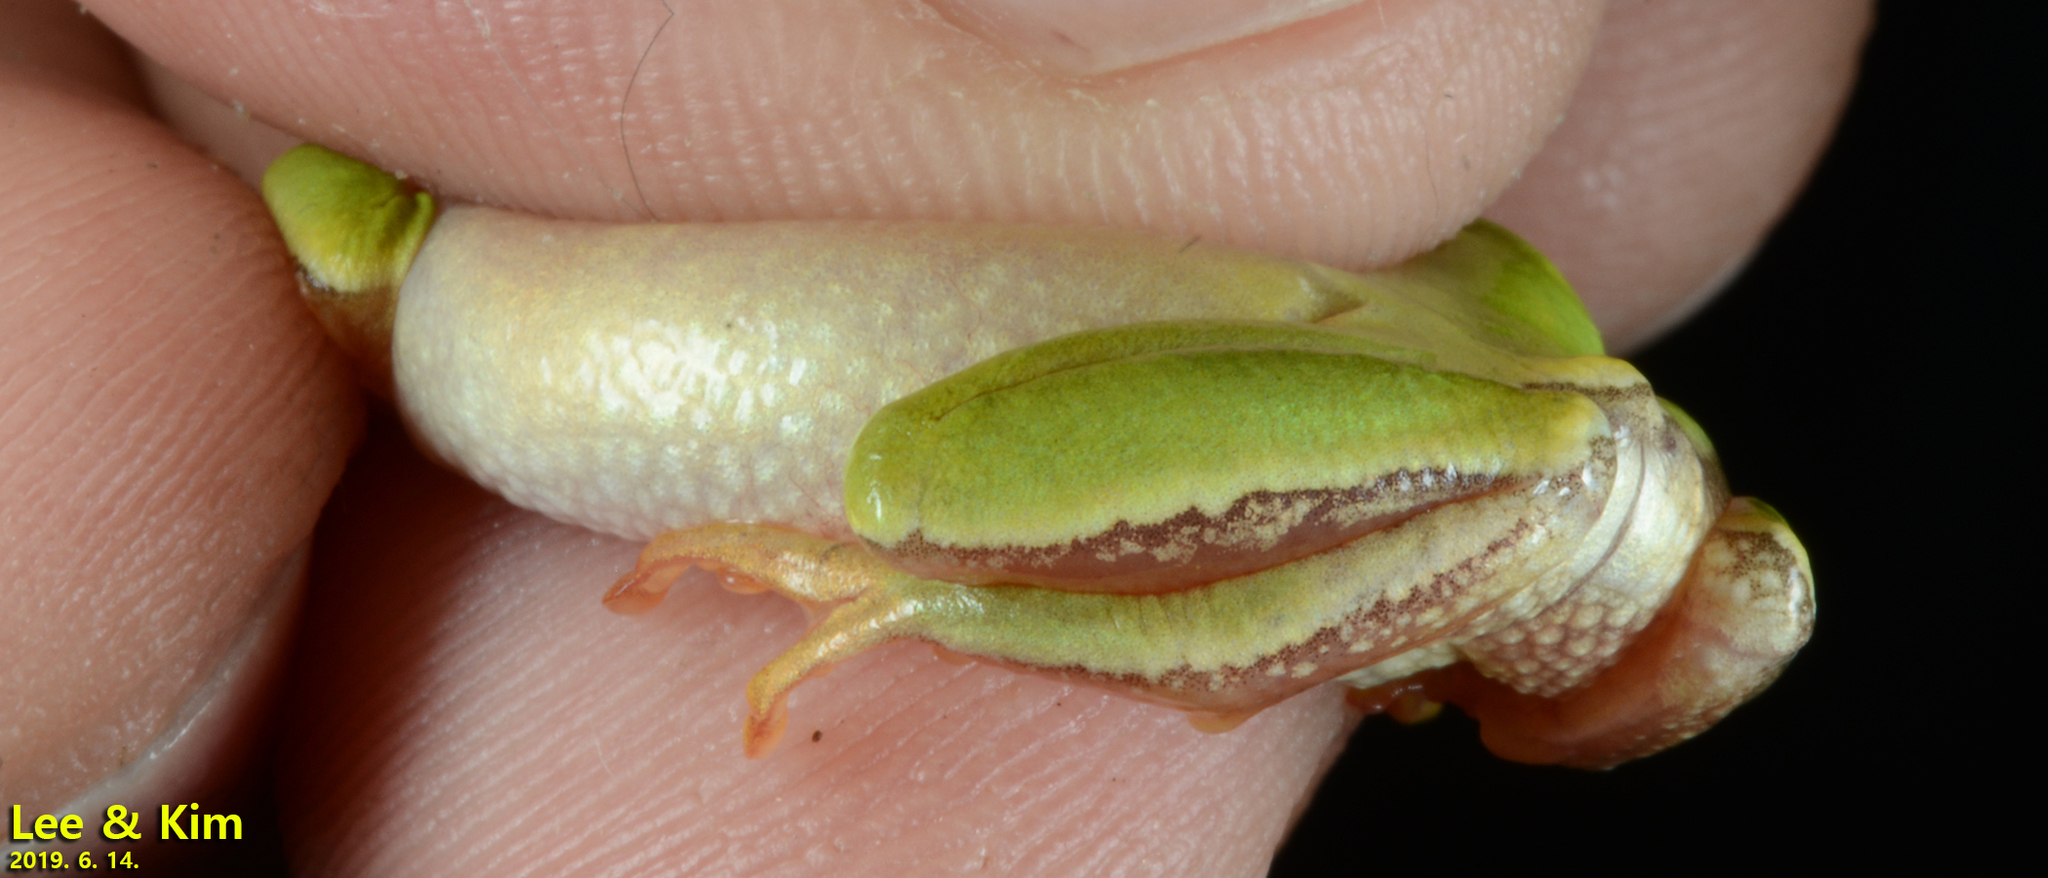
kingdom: Animalia
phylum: Chordata
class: Amphibia
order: Anura
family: Hylidae
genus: Dryophytes
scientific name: Dryophytes immaculatus
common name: North china treefrog
